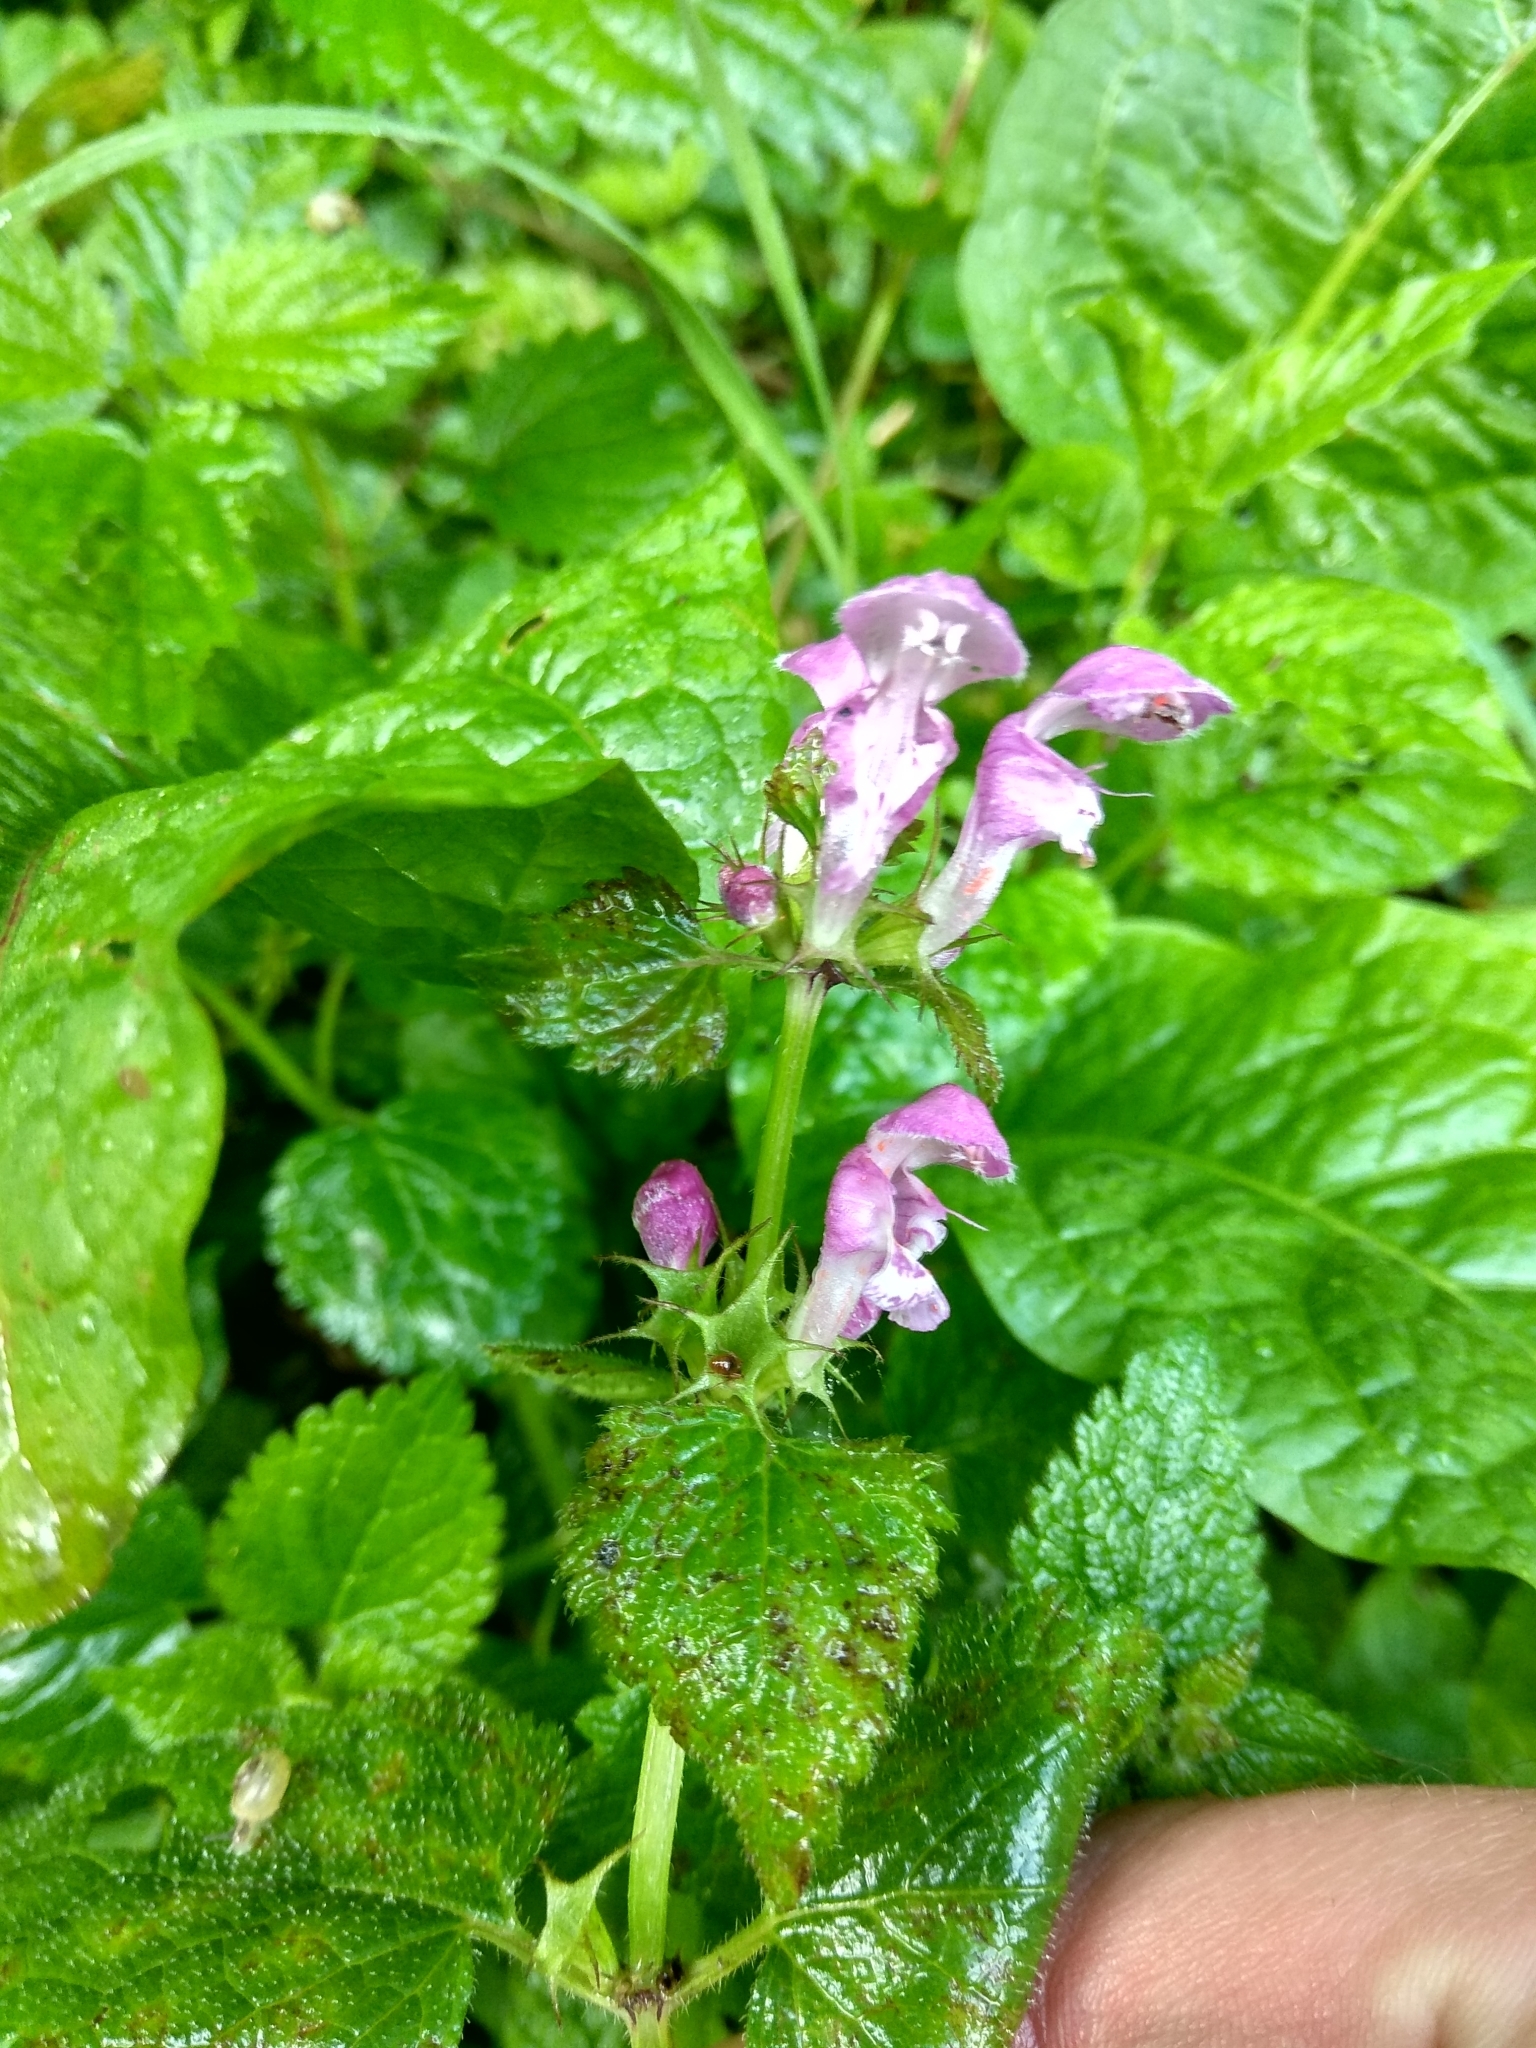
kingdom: Plantae
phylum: Tracheophyta
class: Magnoliopsida
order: Lamiales
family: Lamiaceae
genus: Lamium
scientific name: Lamium maculatum
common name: Spotted dead-nettle
